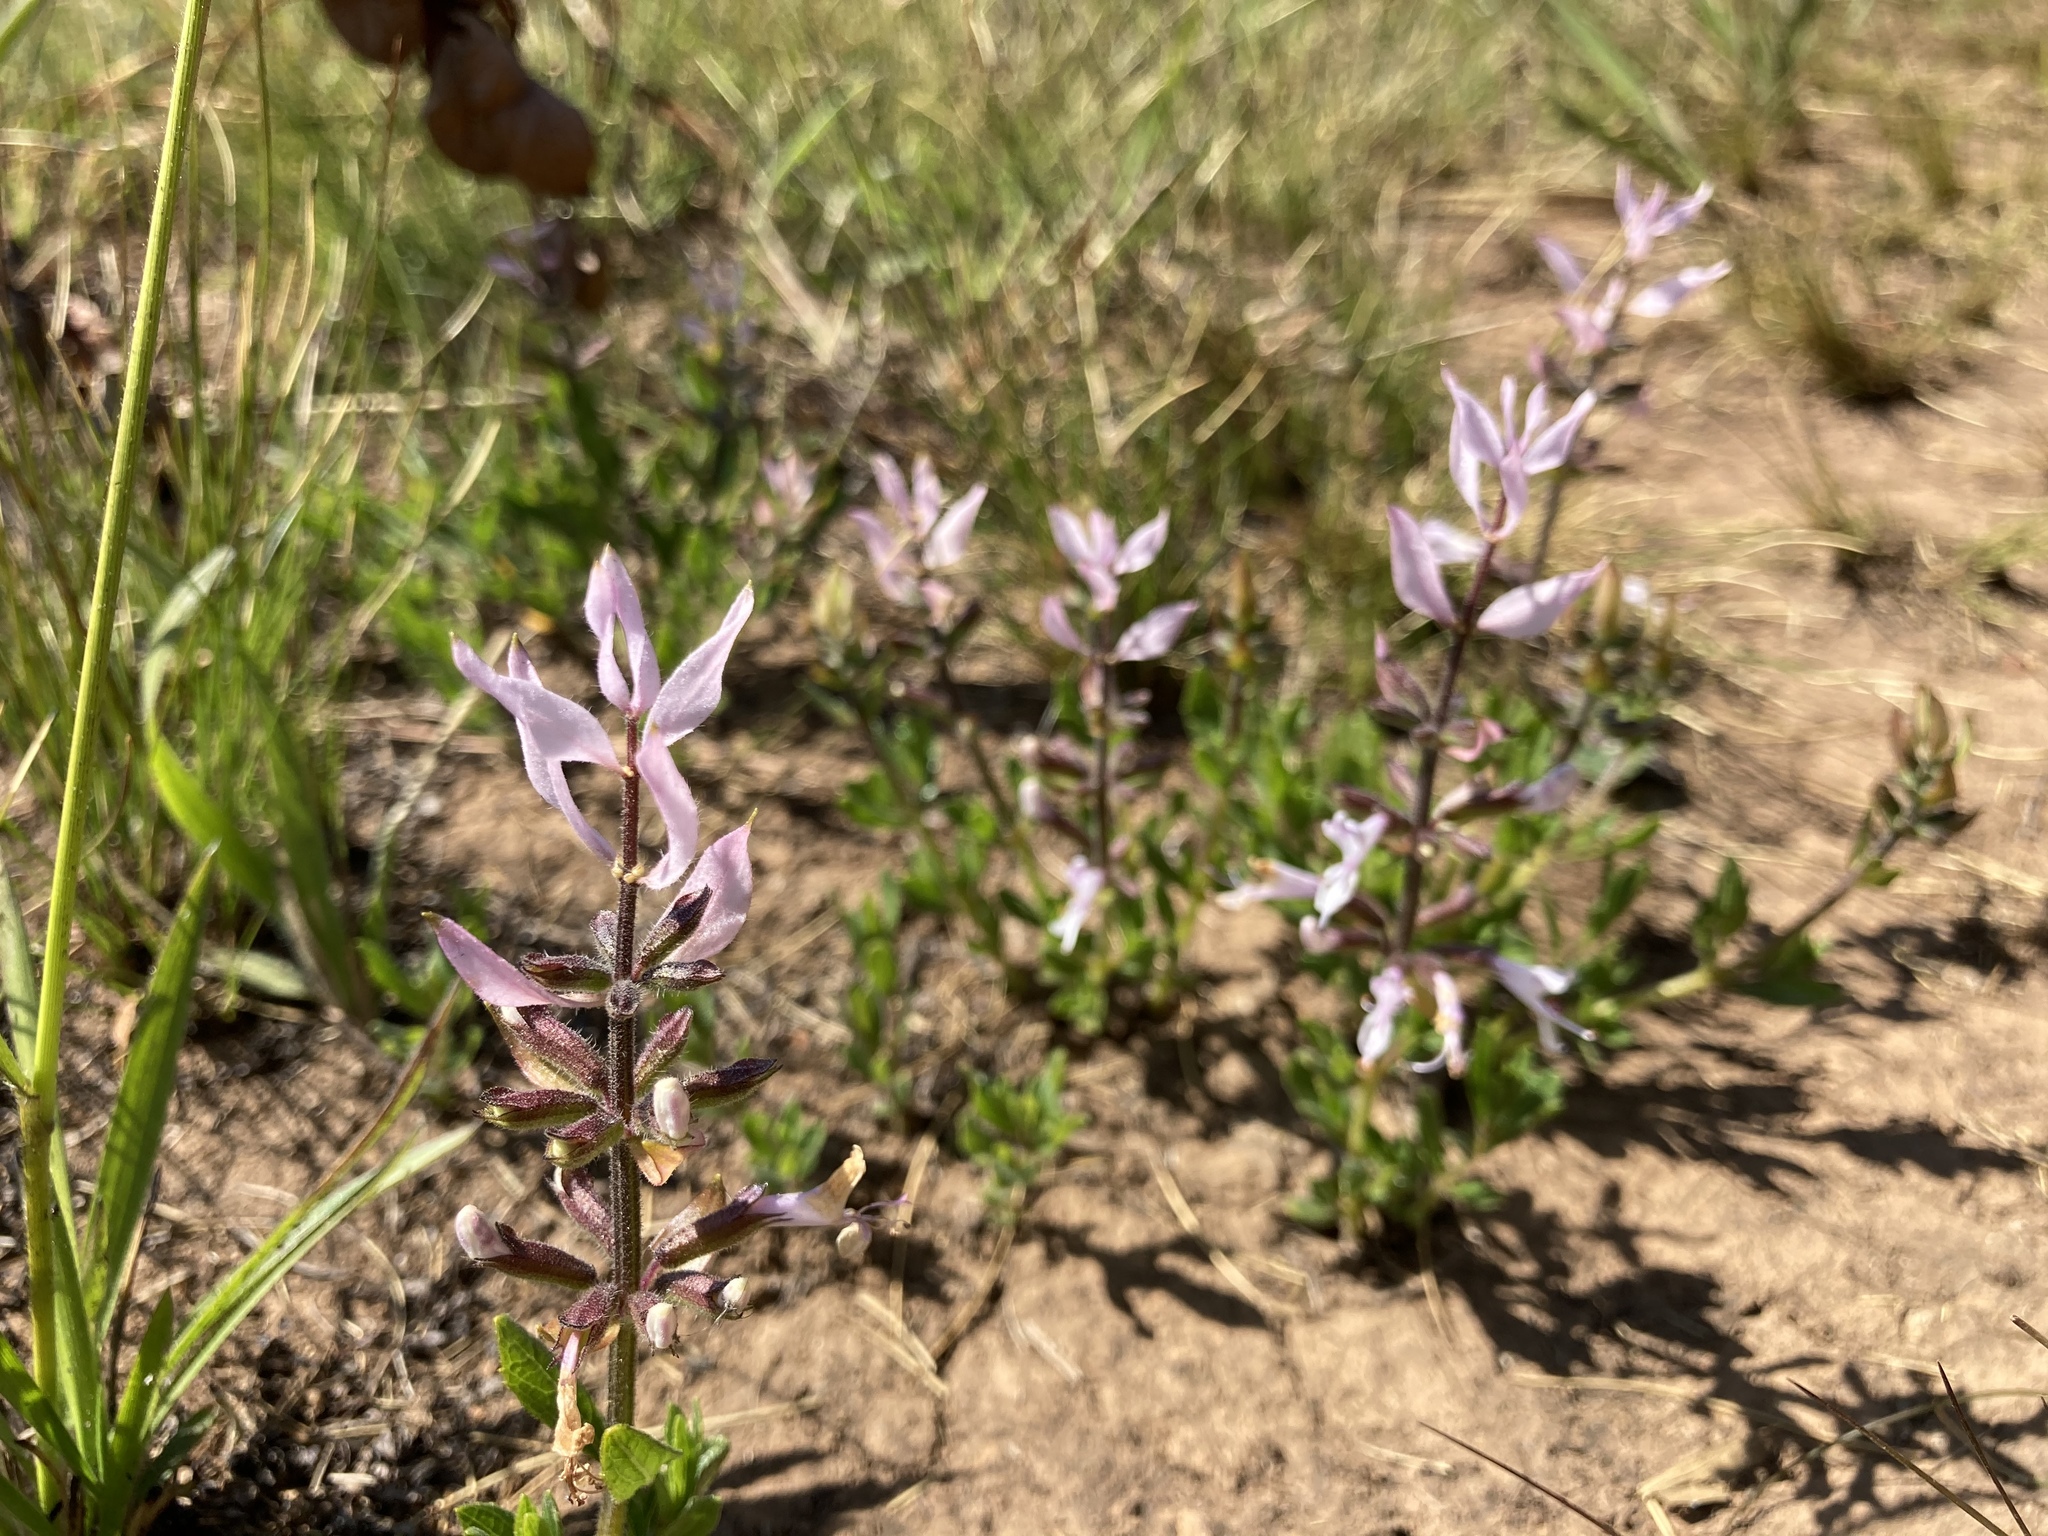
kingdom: Plantae
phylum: Tracheophyta
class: Magnoliopsida
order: Lamiales
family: Lamiaceae
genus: Syncolostemon
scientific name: Syncolostemon
